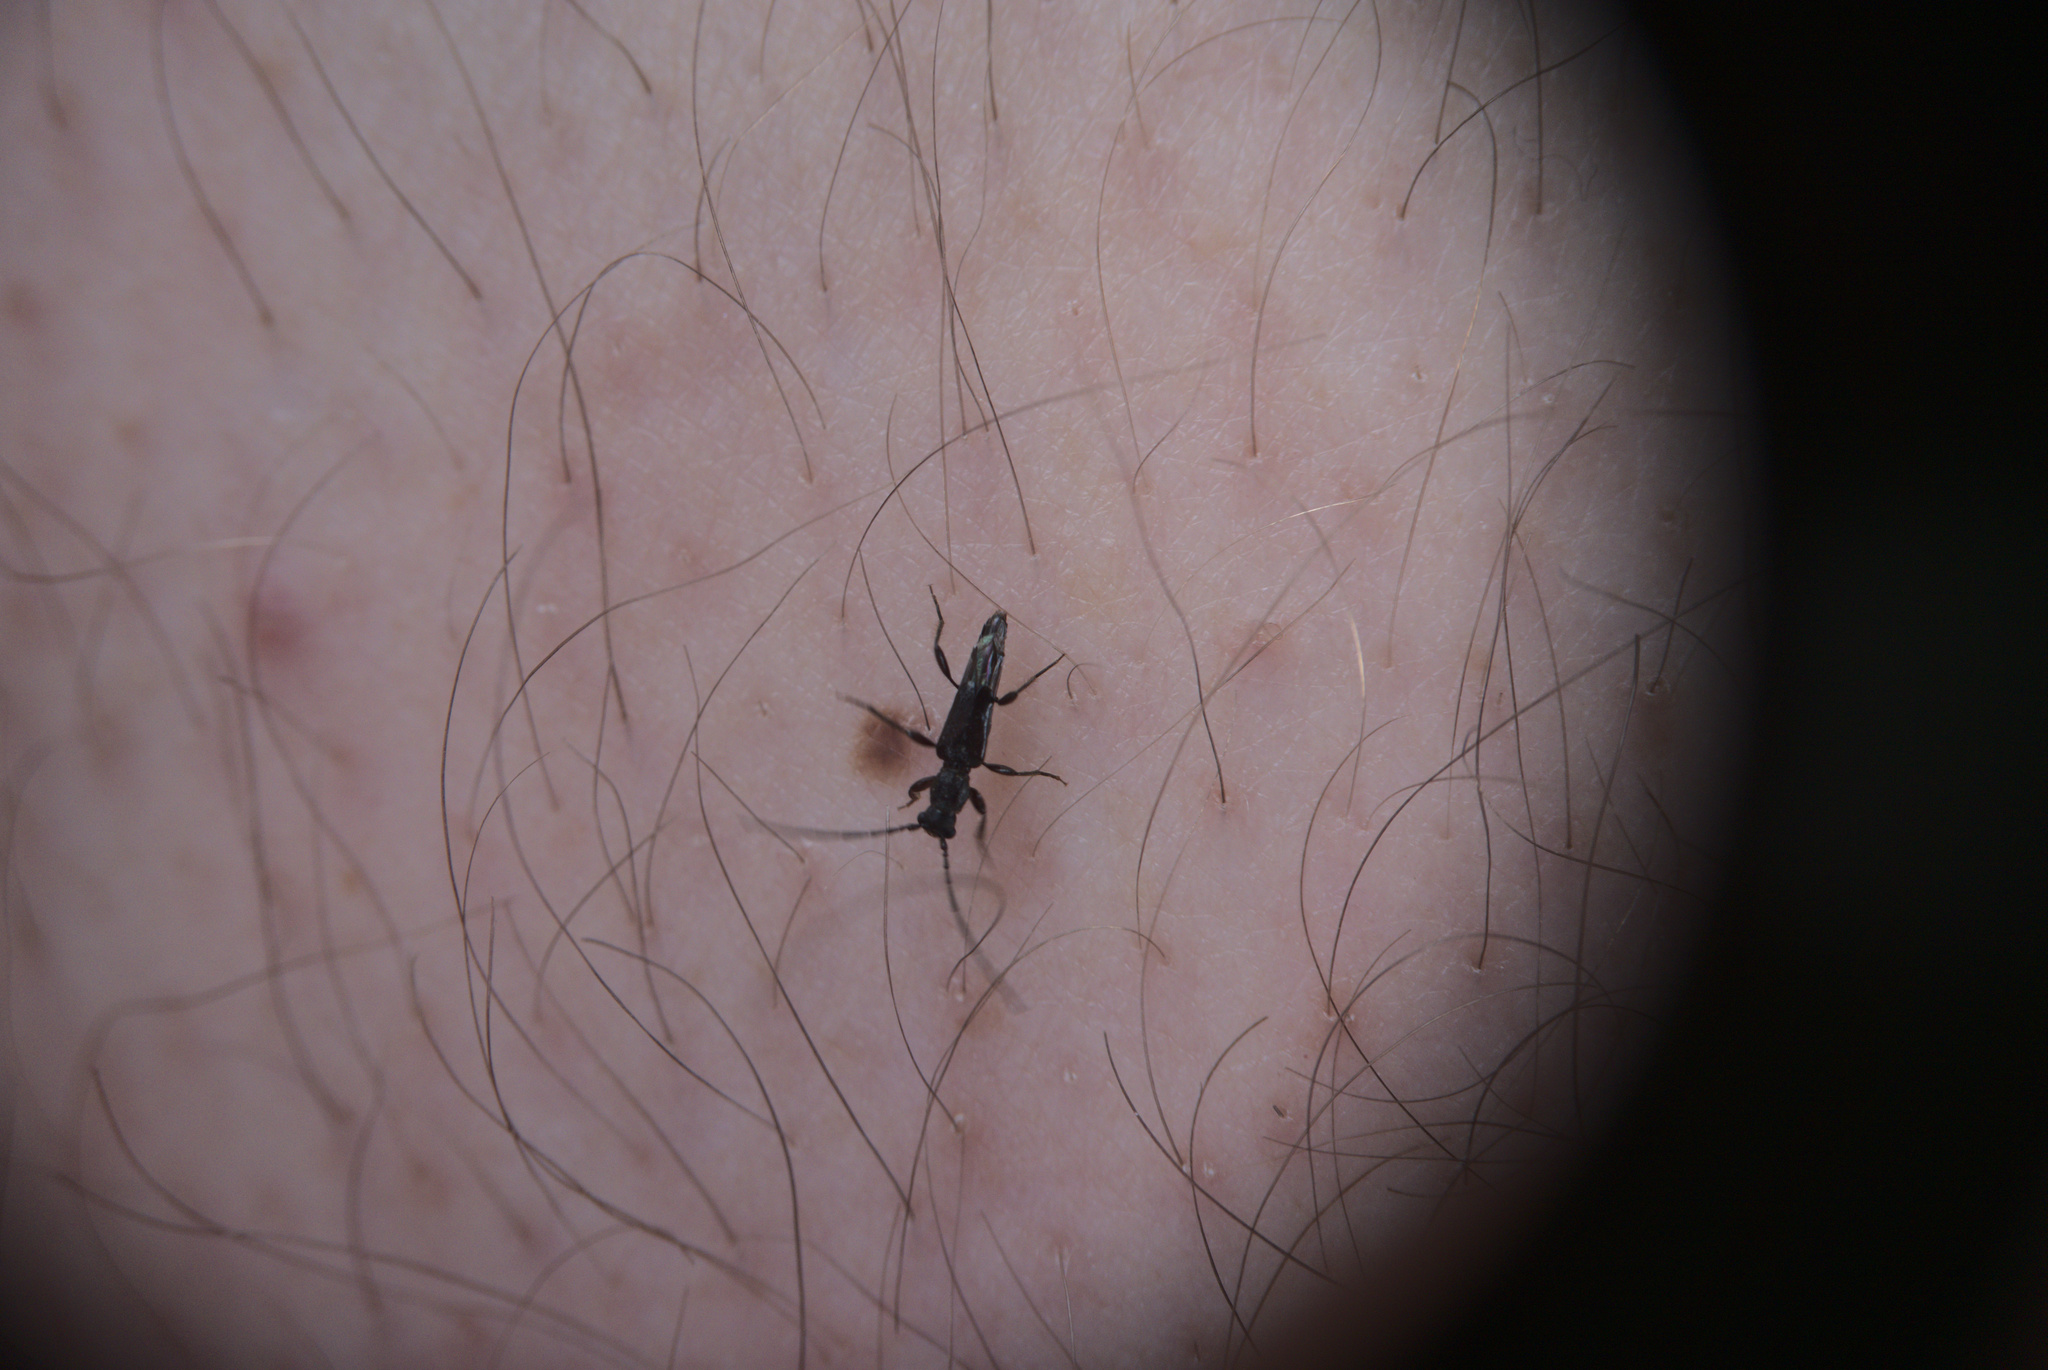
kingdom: Animalia
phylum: Arthropoda
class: Insecta
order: Coleoptera
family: Cerambycidae
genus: Nathrius
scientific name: Nathrius brevipennis
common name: Long-horned beetle
